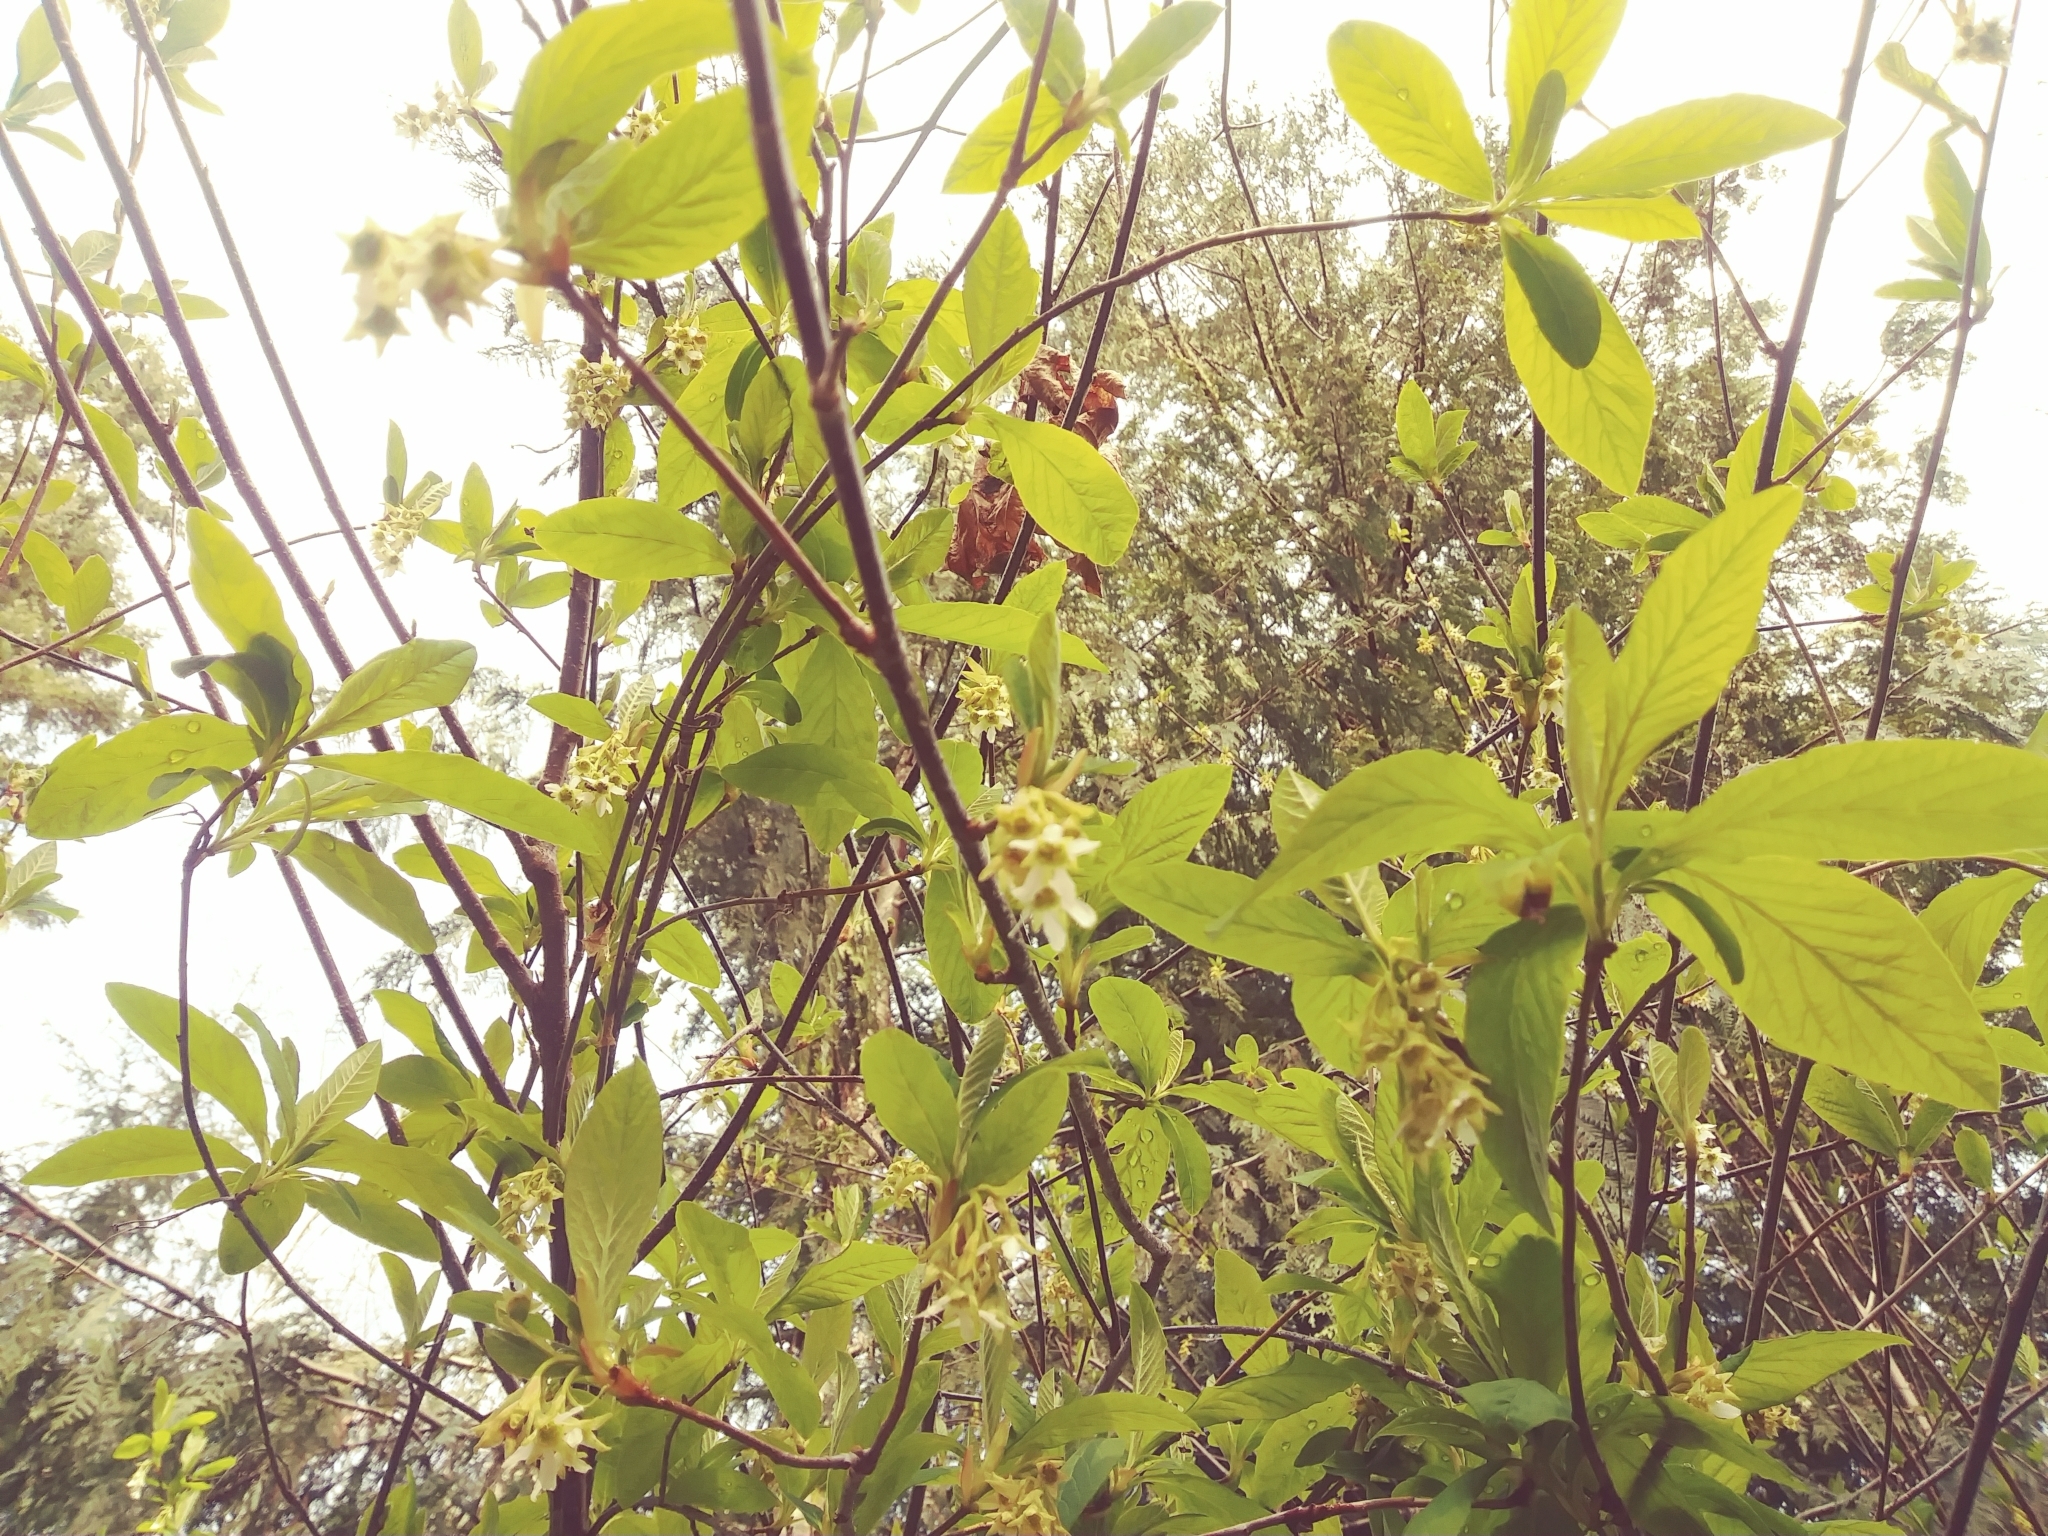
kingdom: Plantae
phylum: Tracheophyta
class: Magnoliopsida
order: Rosales
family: Rosaceae
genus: Oemleria
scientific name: Oemleria cerasiformis
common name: Osoberry
